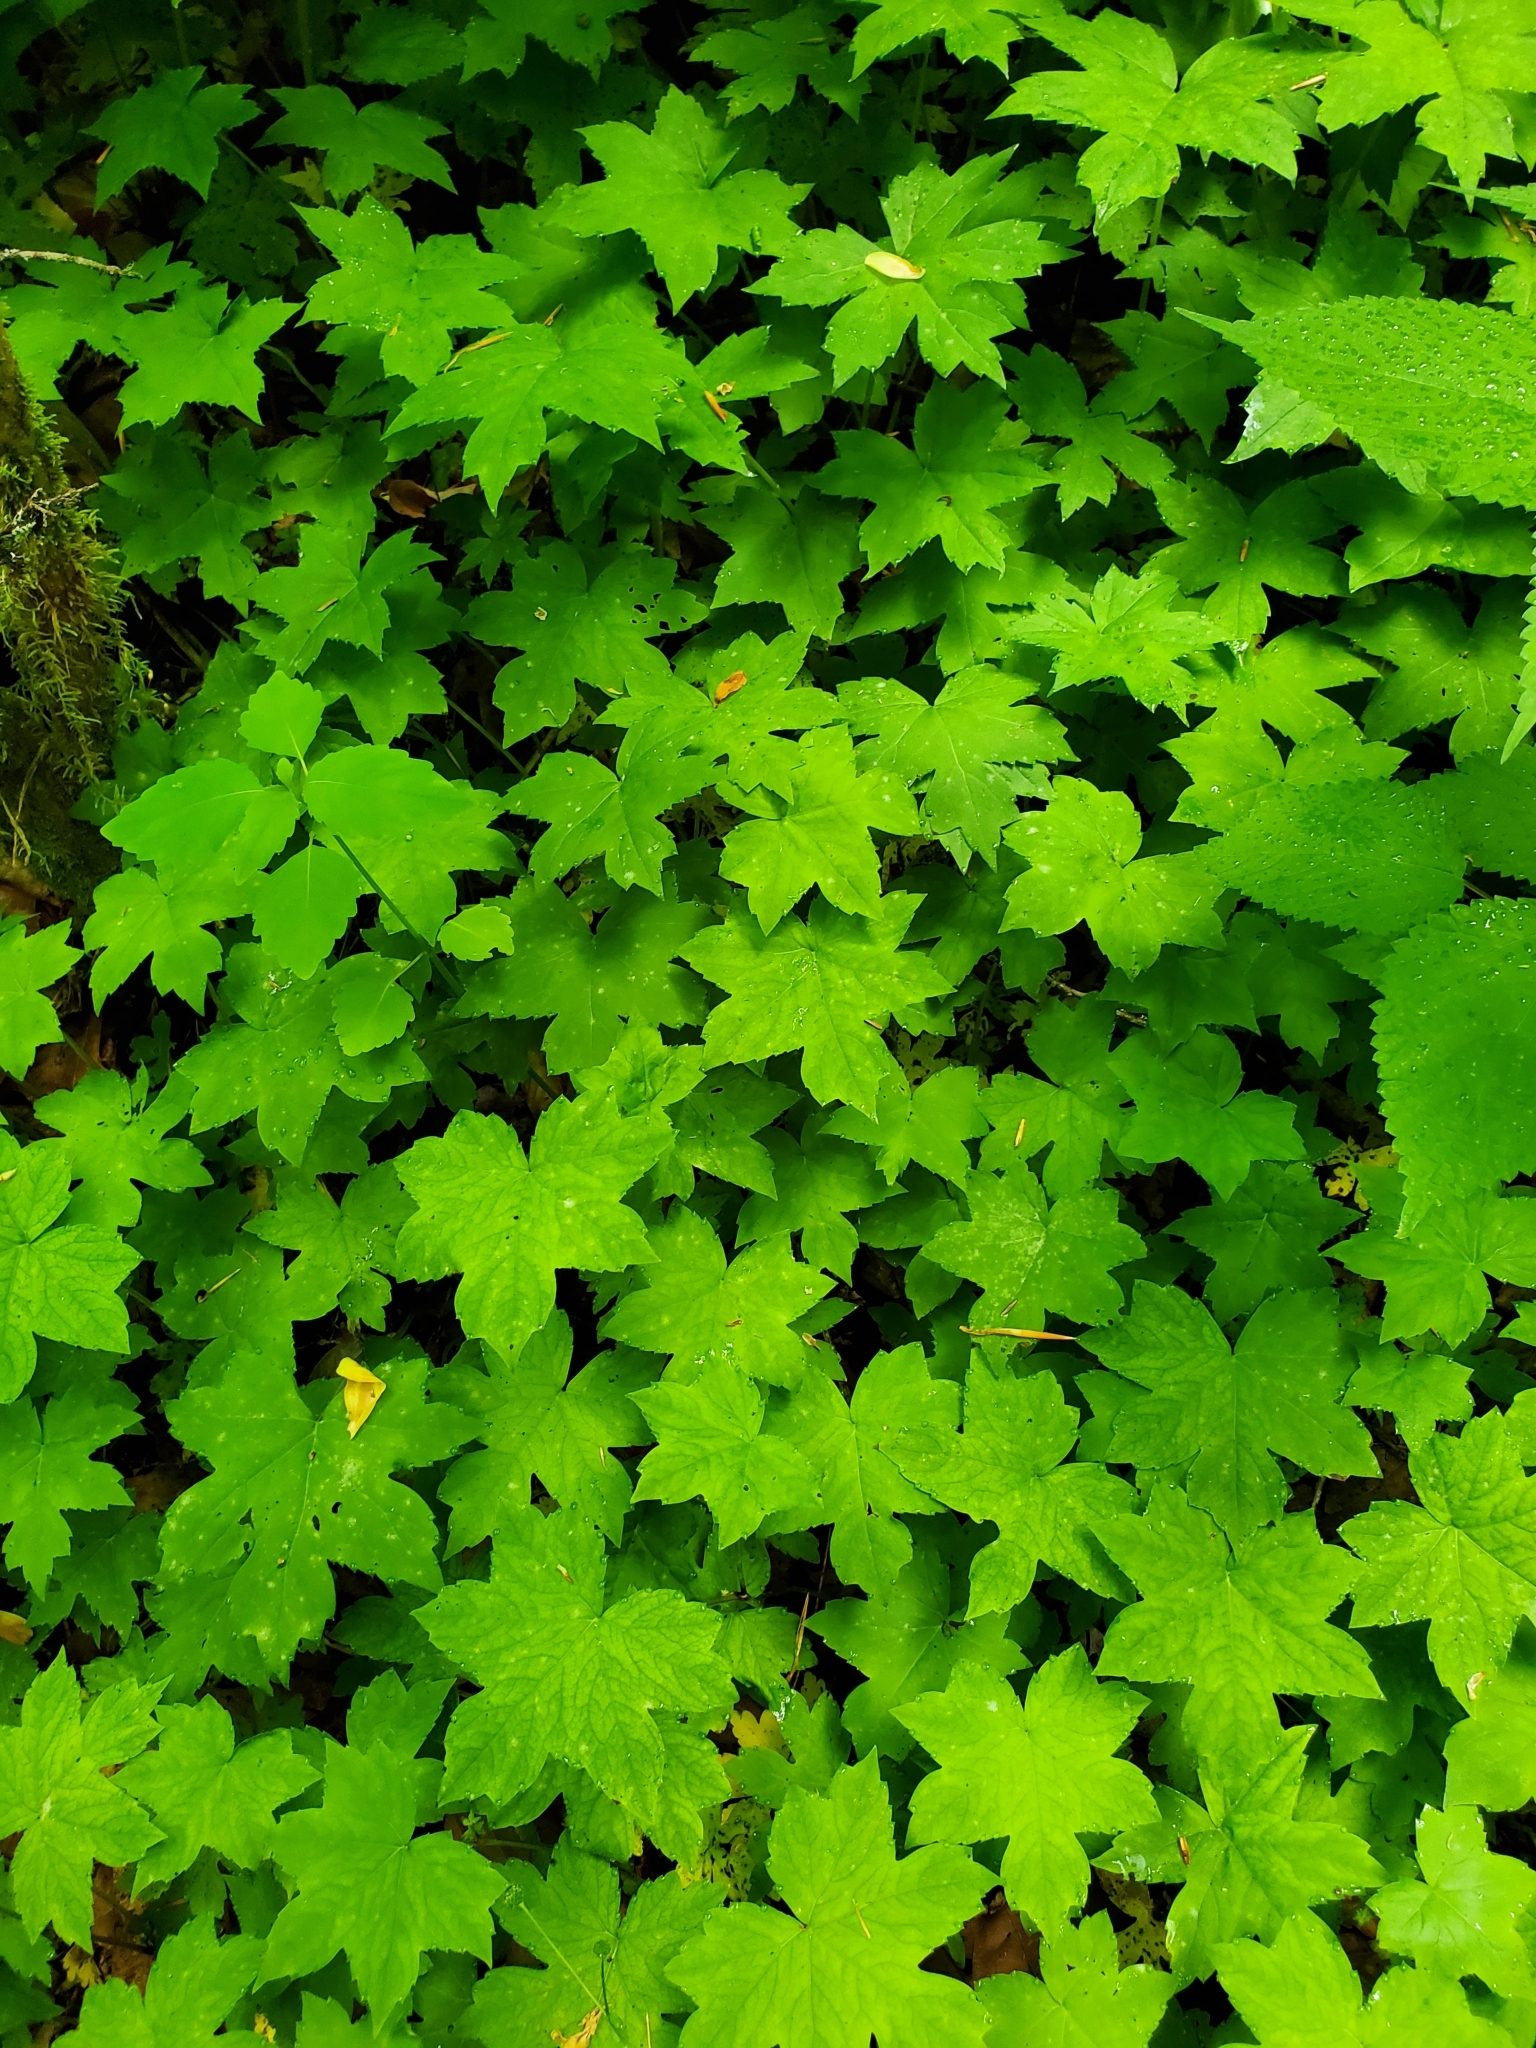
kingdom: Plantae
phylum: Tracheophyta
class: Magnoliopsida
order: Boraginales
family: Hydrophyllaceae
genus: Hydrophyllum
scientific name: Hydrophyllum canadense
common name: Canada waterleaf
